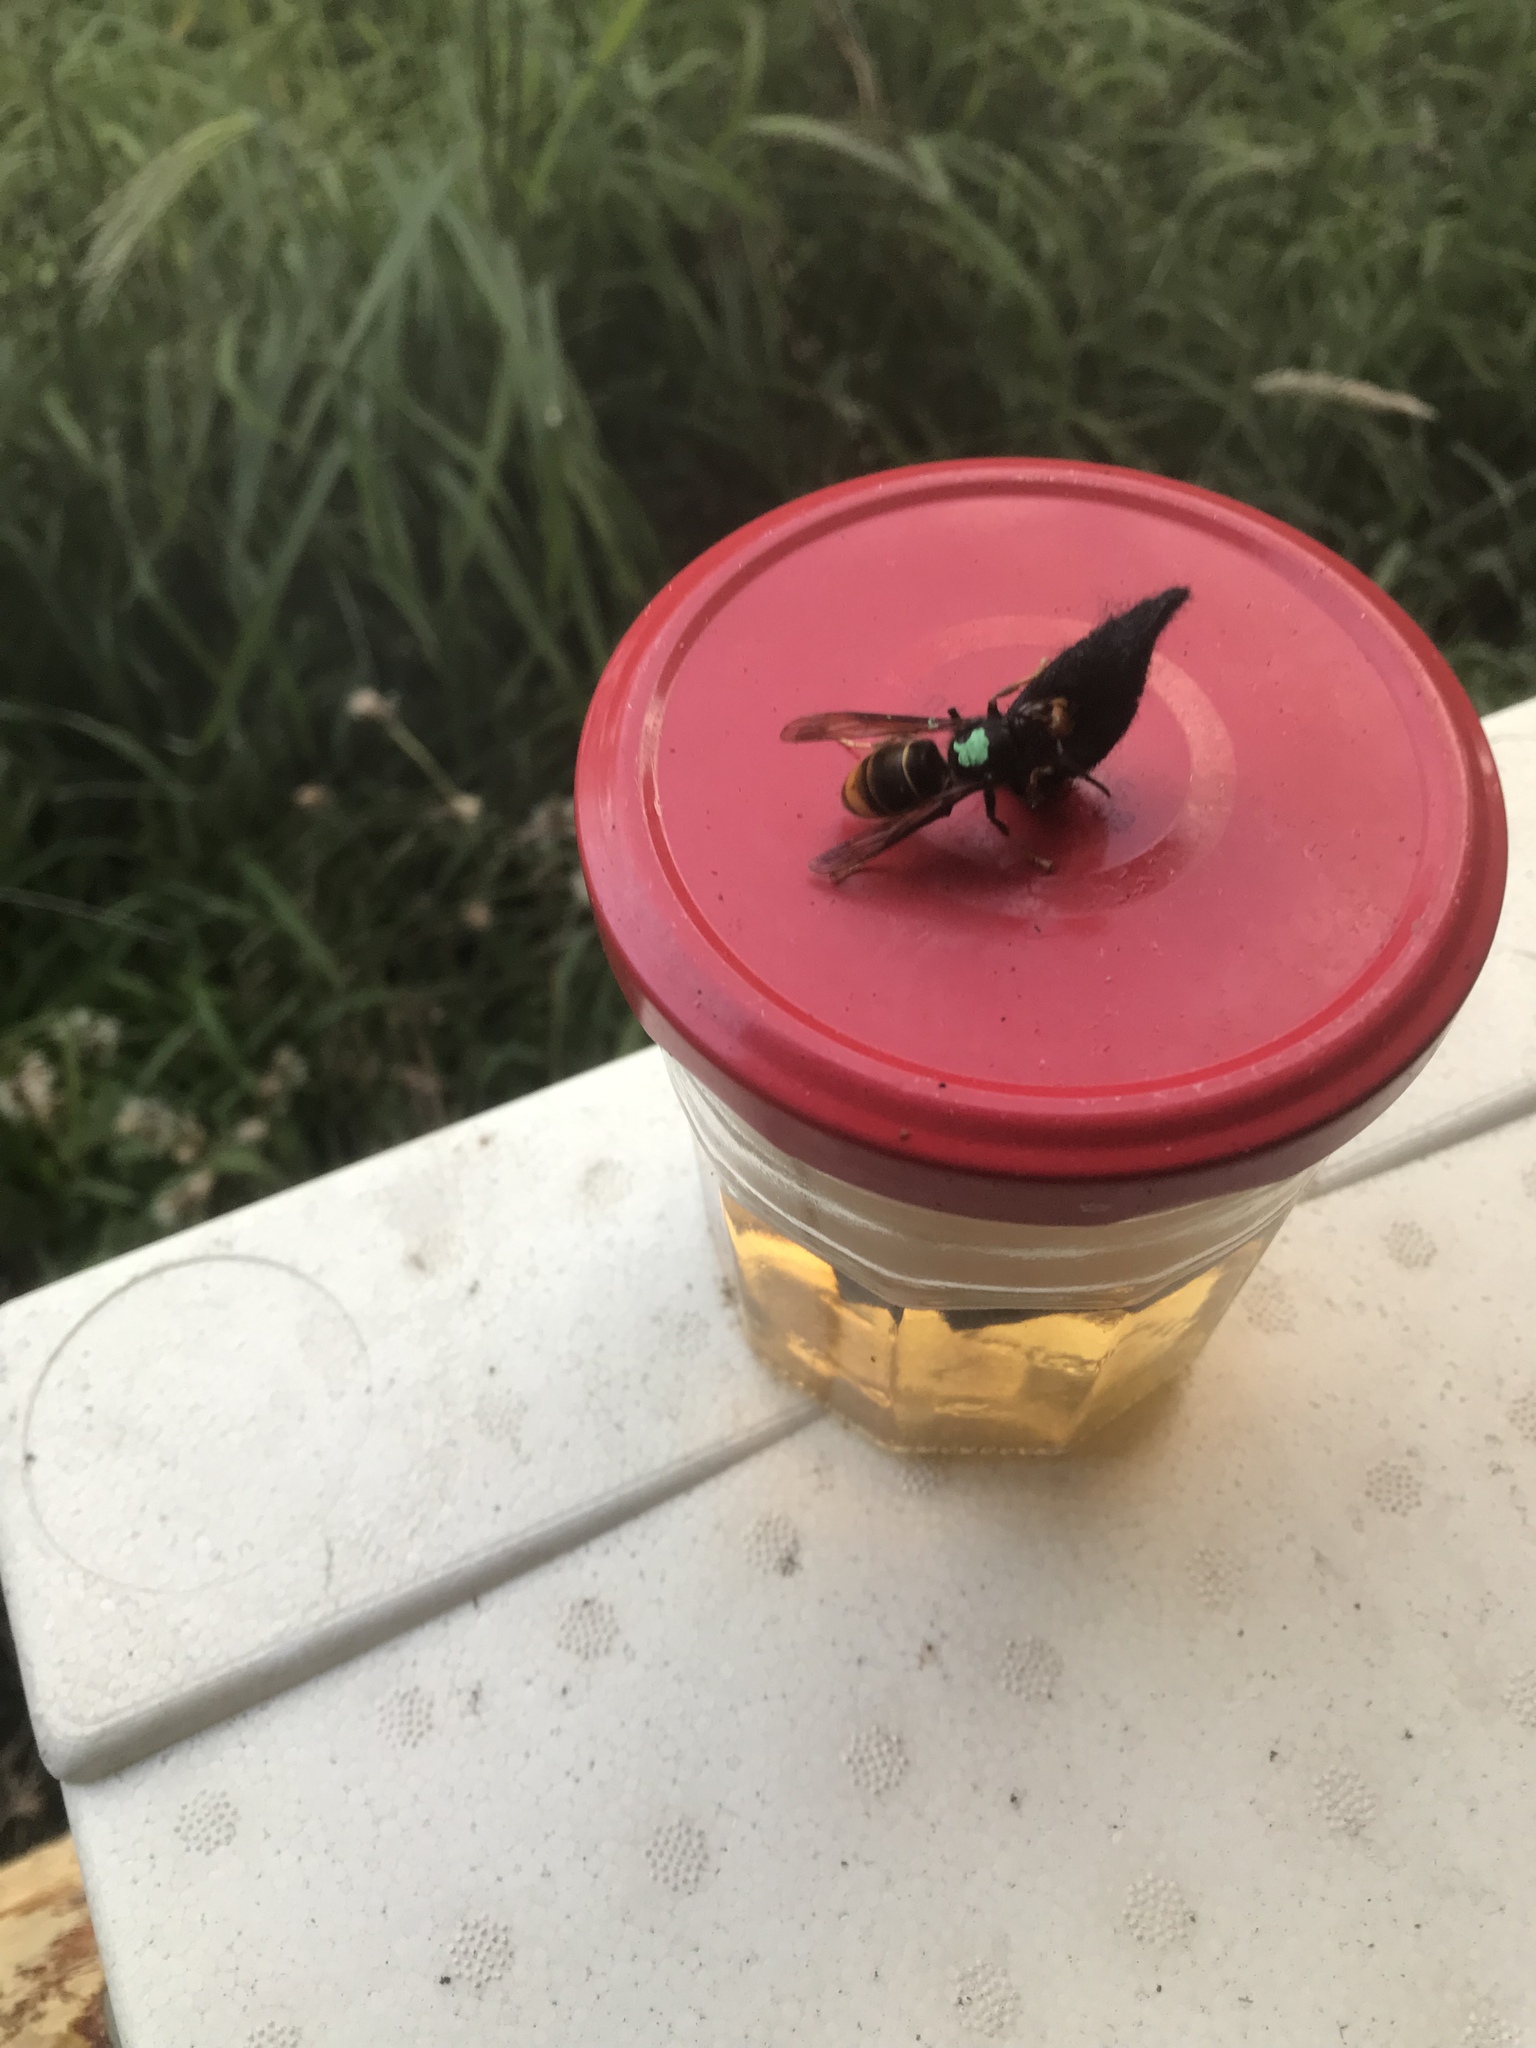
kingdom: Animalia
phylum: Arthropoda
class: Insecta
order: Hymenoptera
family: Vespidae
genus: Vespa
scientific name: Vespa velutina
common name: Asian hornet
